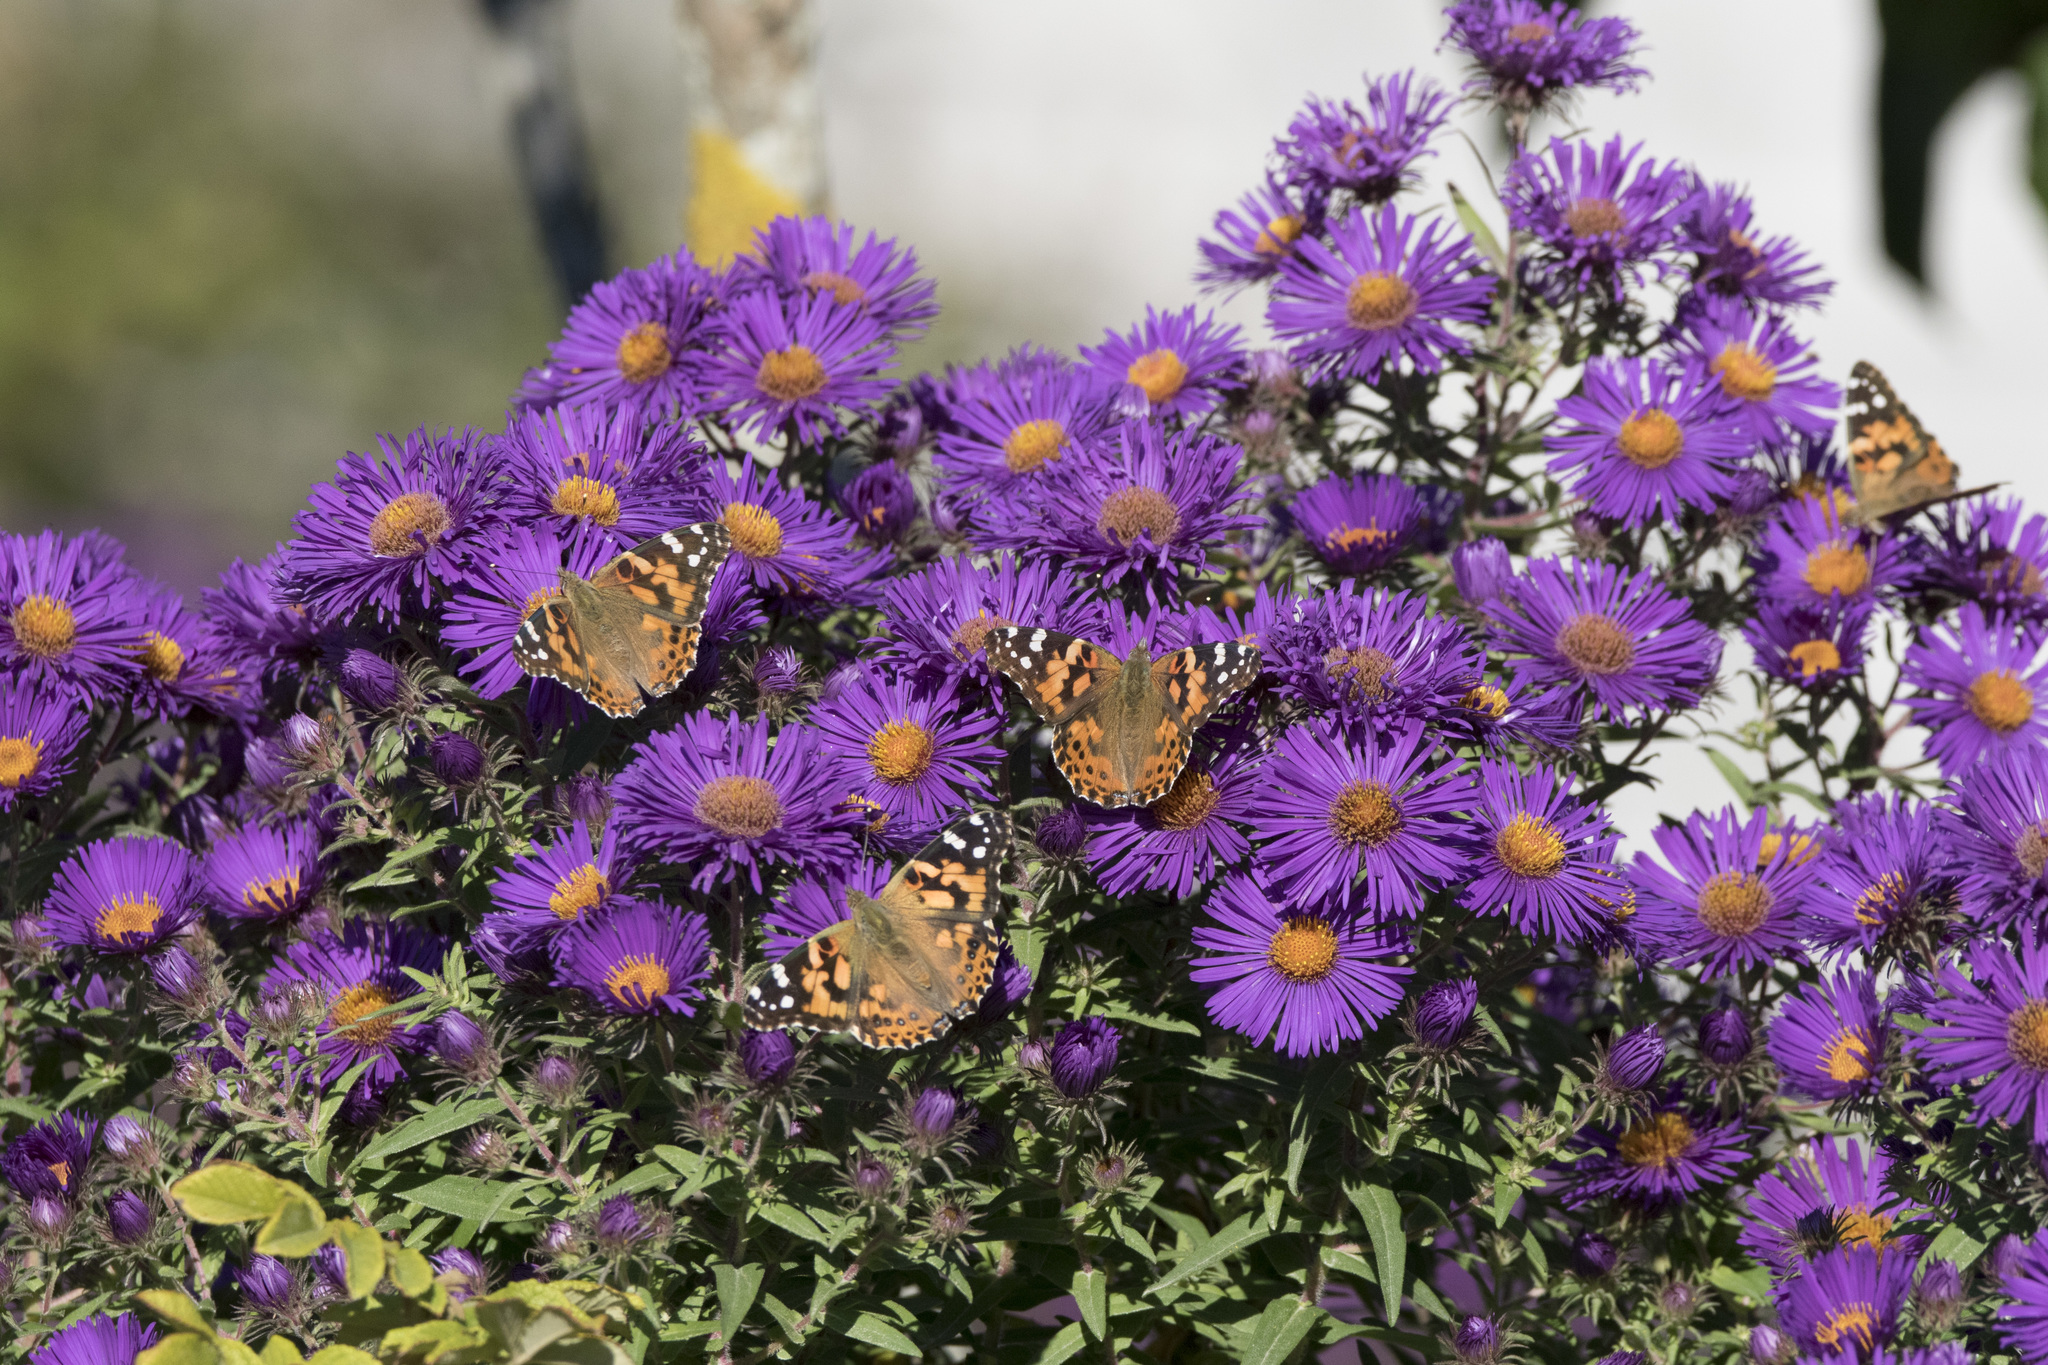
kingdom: Animalia
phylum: Arthropoda
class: Insecta
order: Lepidoptera
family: Nymphalidae
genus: Vanessa
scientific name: Vanessa cardui
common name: Painted lady
